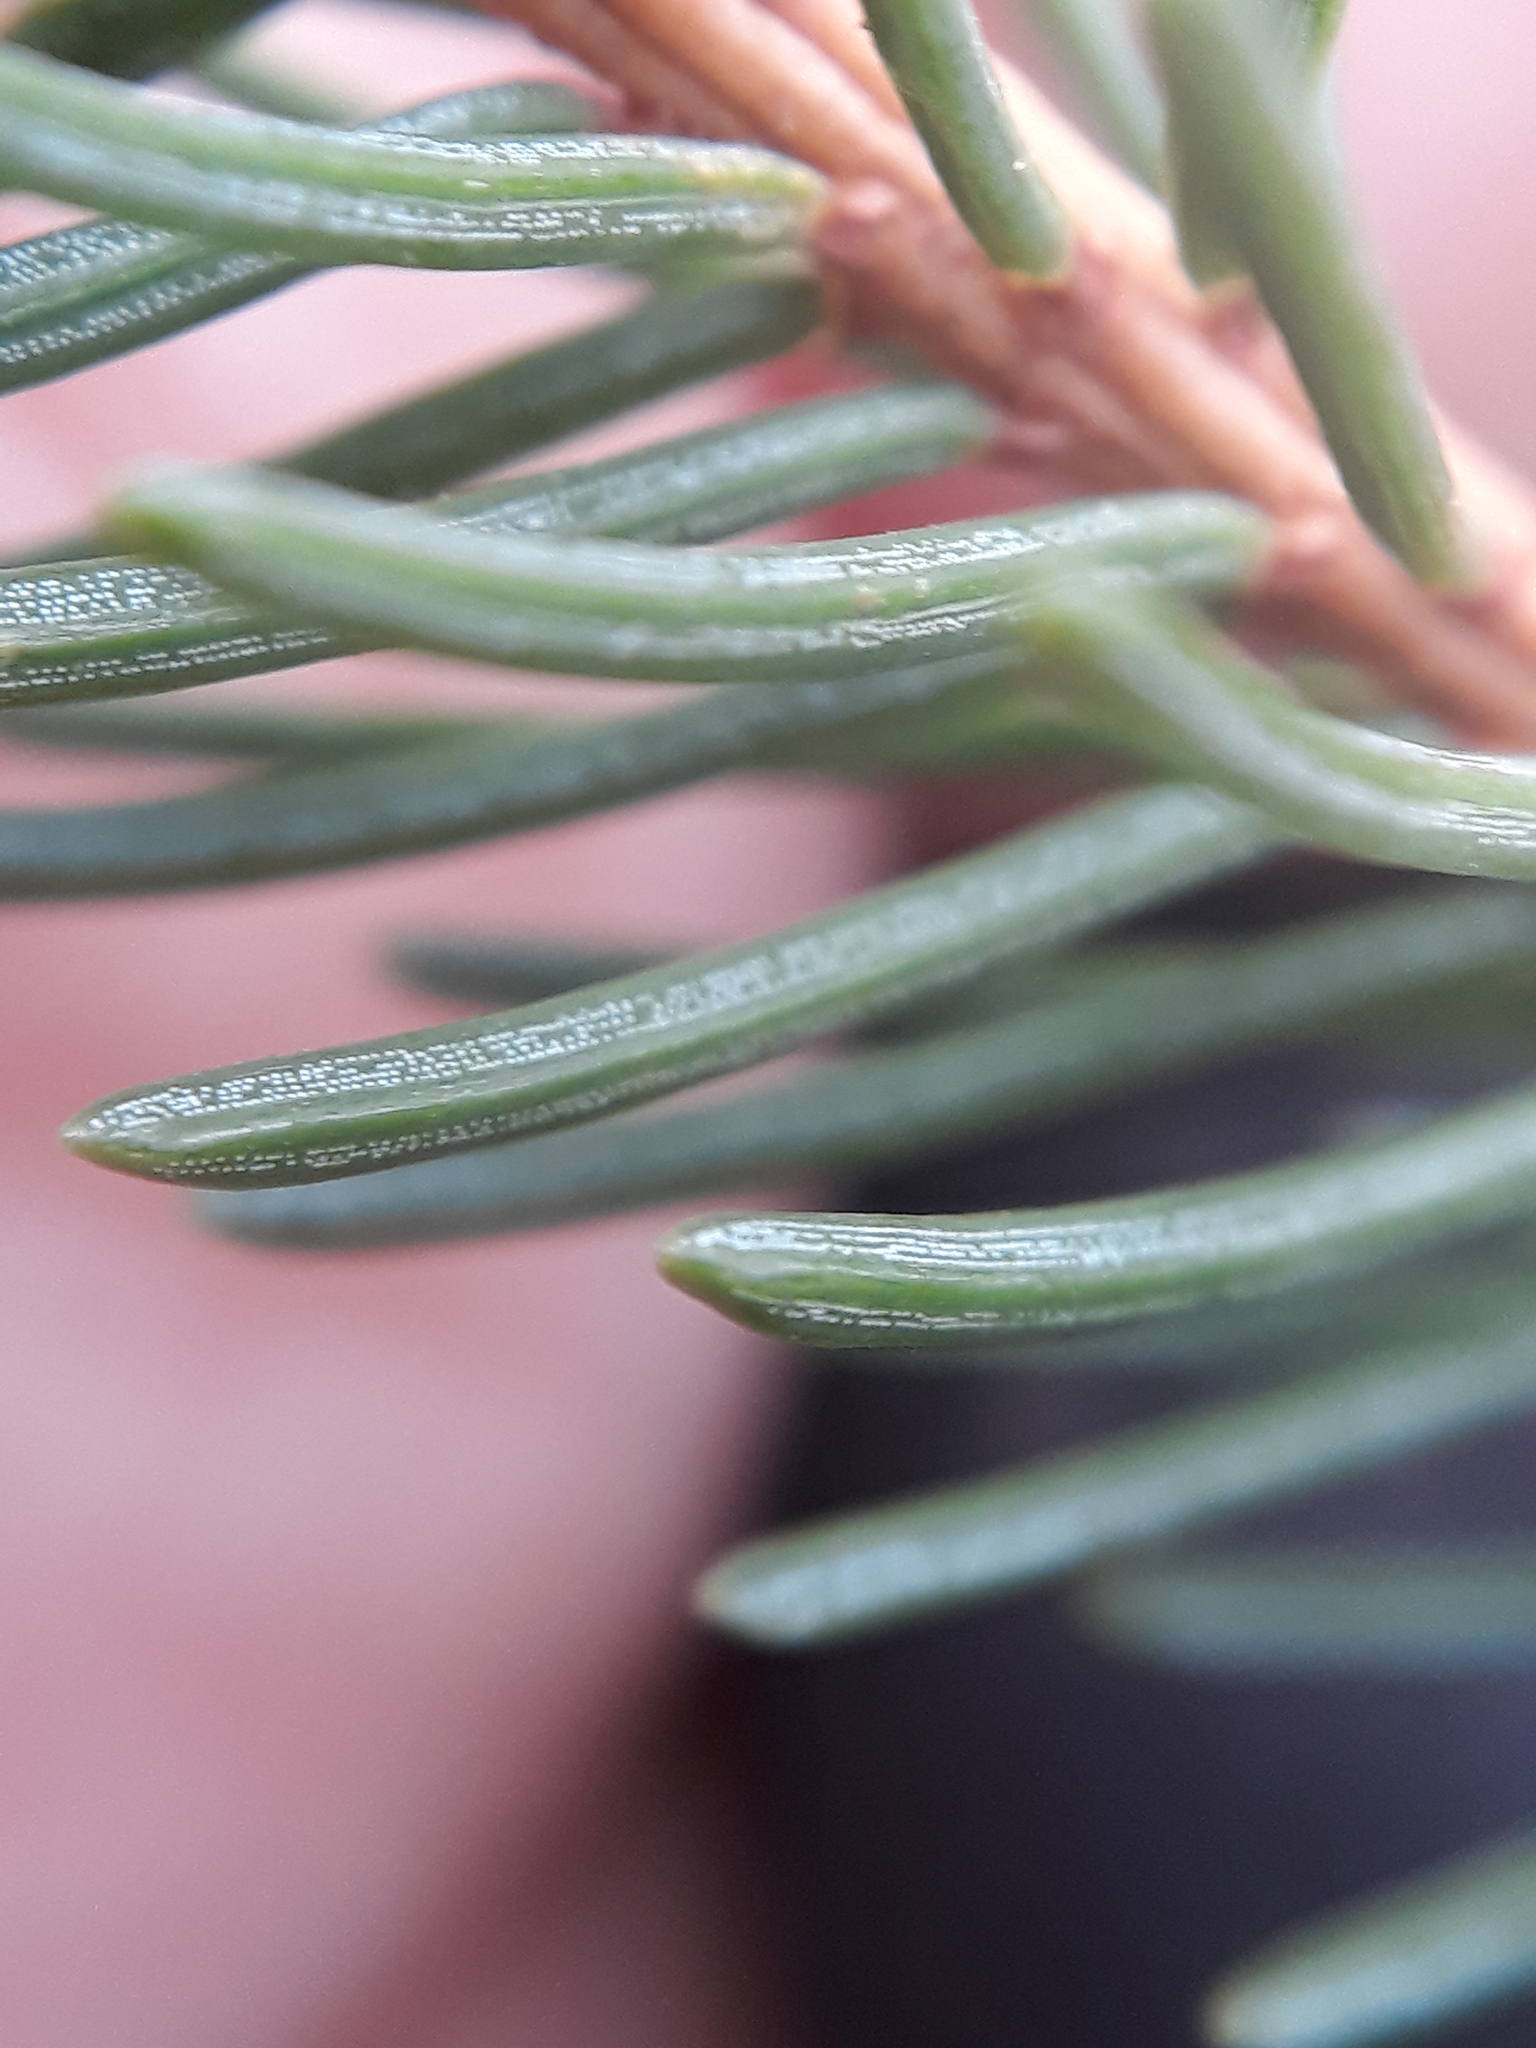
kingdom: Plantae
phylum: Tracheophyta
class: Pinopsida
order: Pinales
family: Pinaceae
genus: Picea
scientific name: Picea abies
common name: Norway spruce
